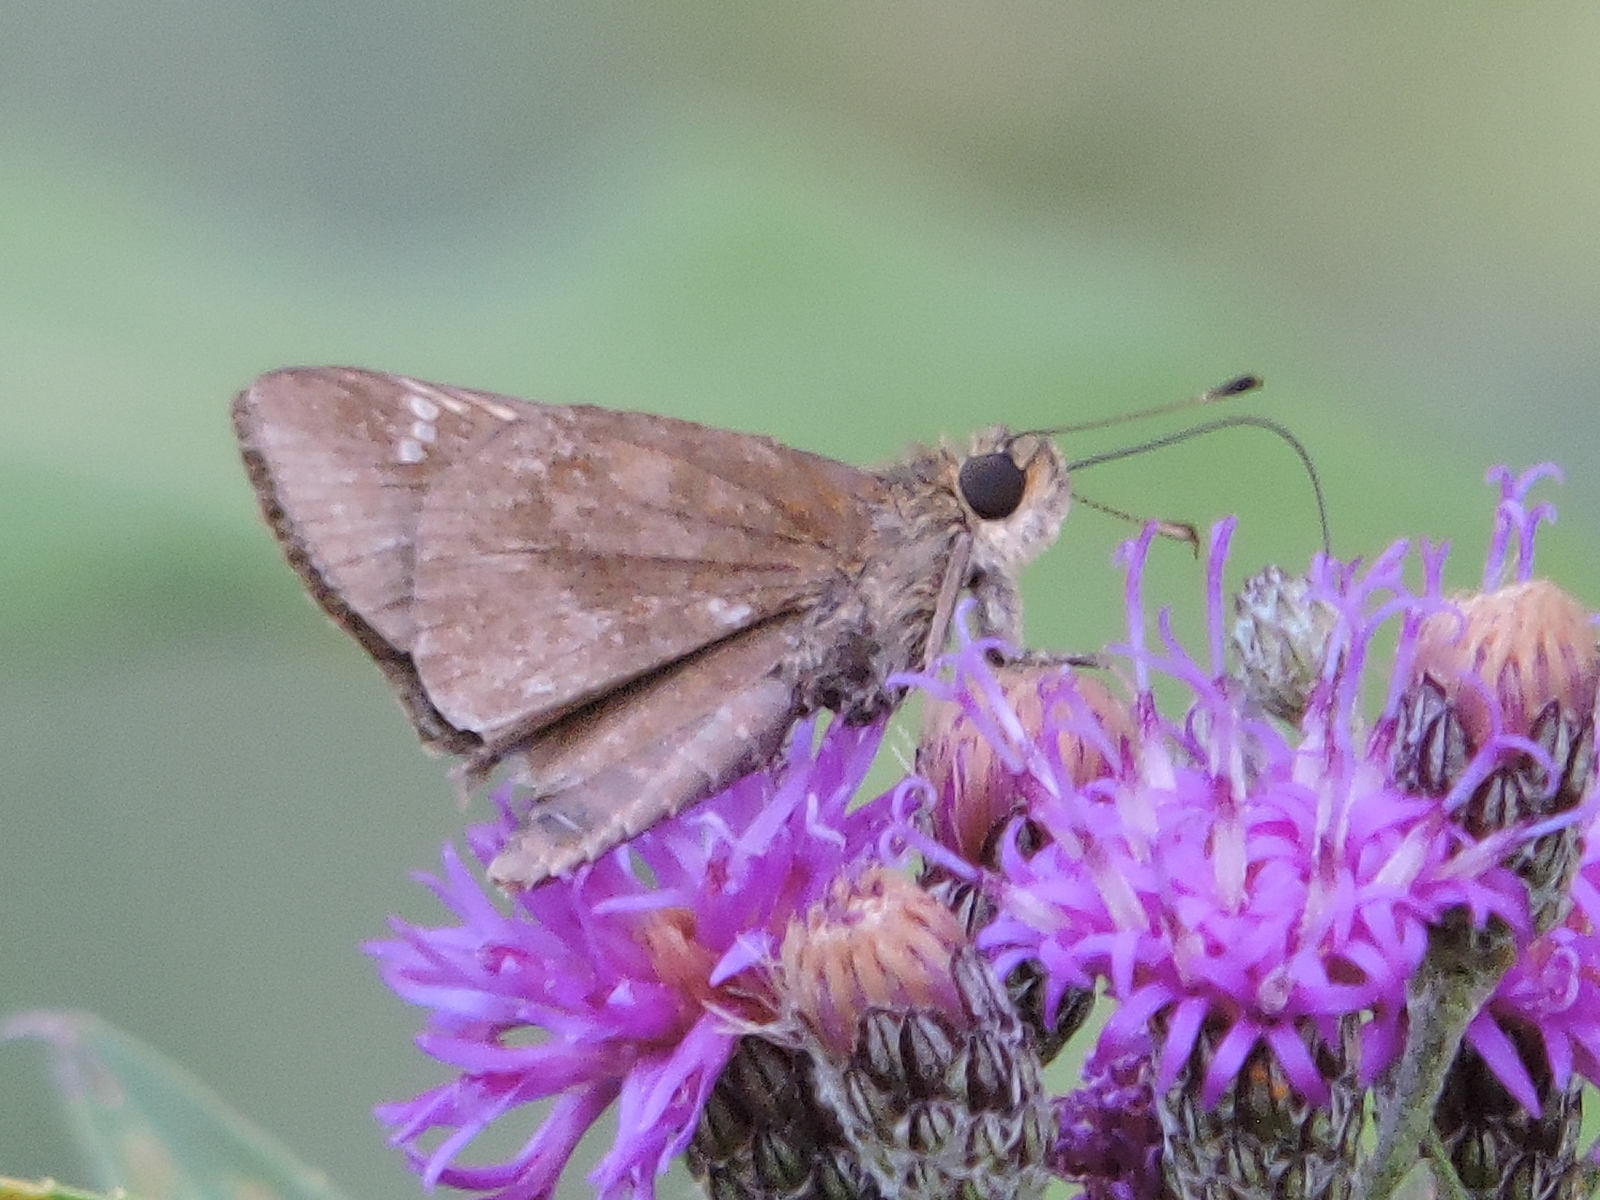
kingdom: Animalia
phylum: Arthropoda
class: Insecta
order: Lepidoptera
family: Hesperiidae
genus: Lerema
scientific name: Lerema accius
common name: Clouded skipper
